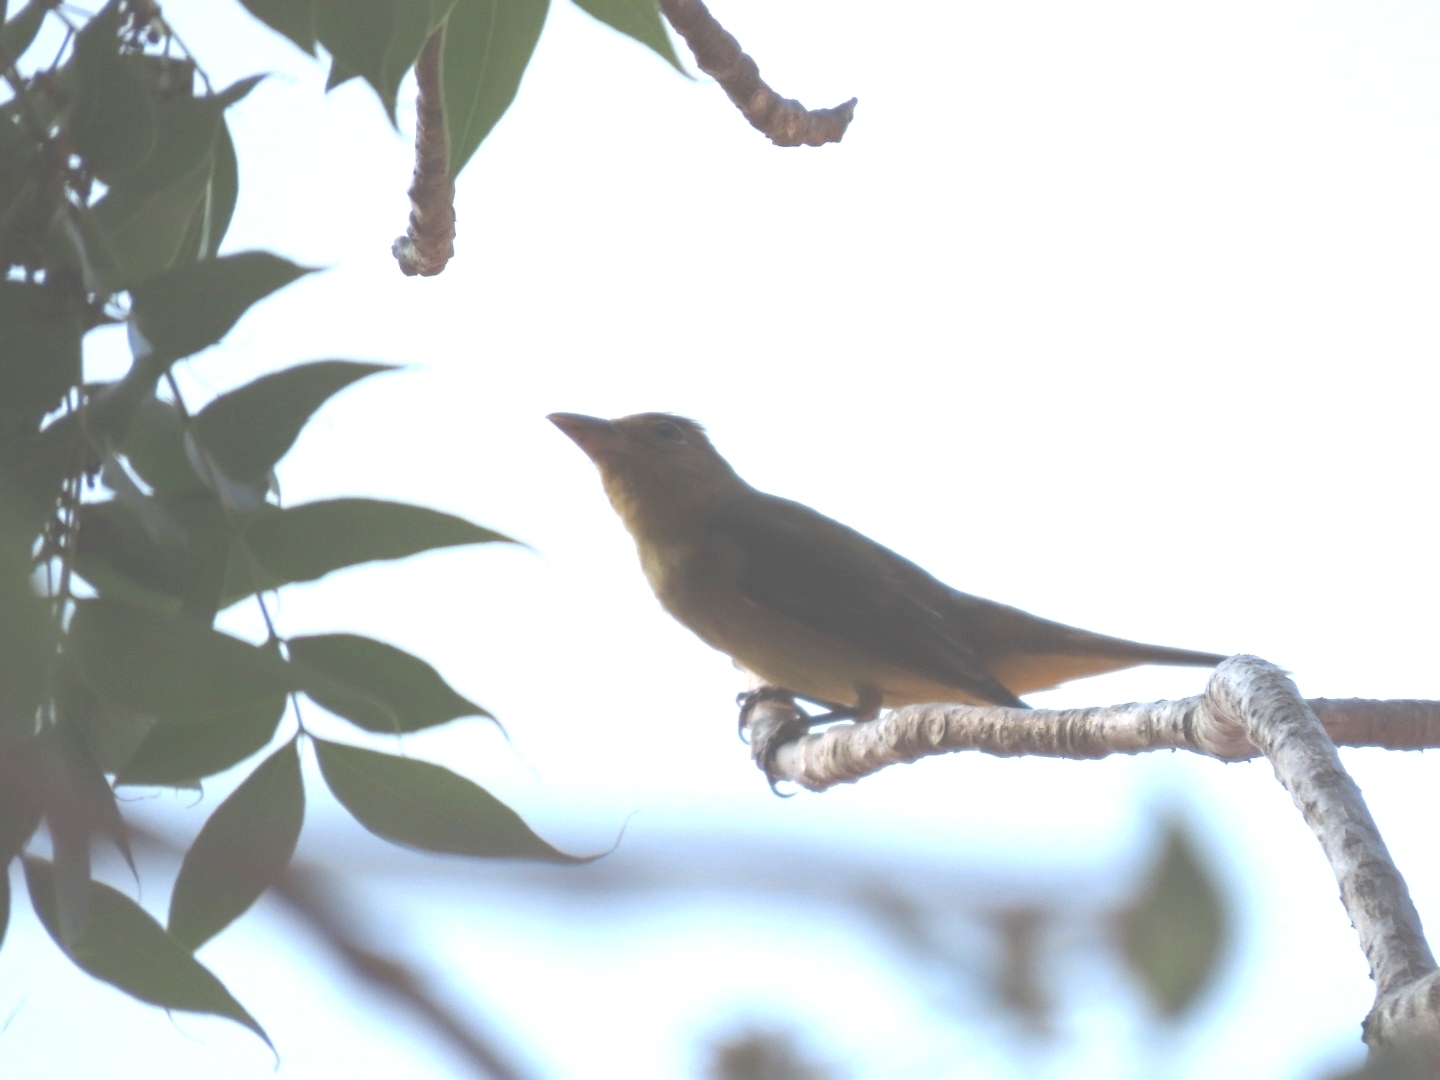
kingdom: Animalia
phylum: Chordata
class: Aves
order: Passeriformes
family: Cardinalidae
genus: Piranga
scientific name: Piranga rubra
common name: Summer tanager
